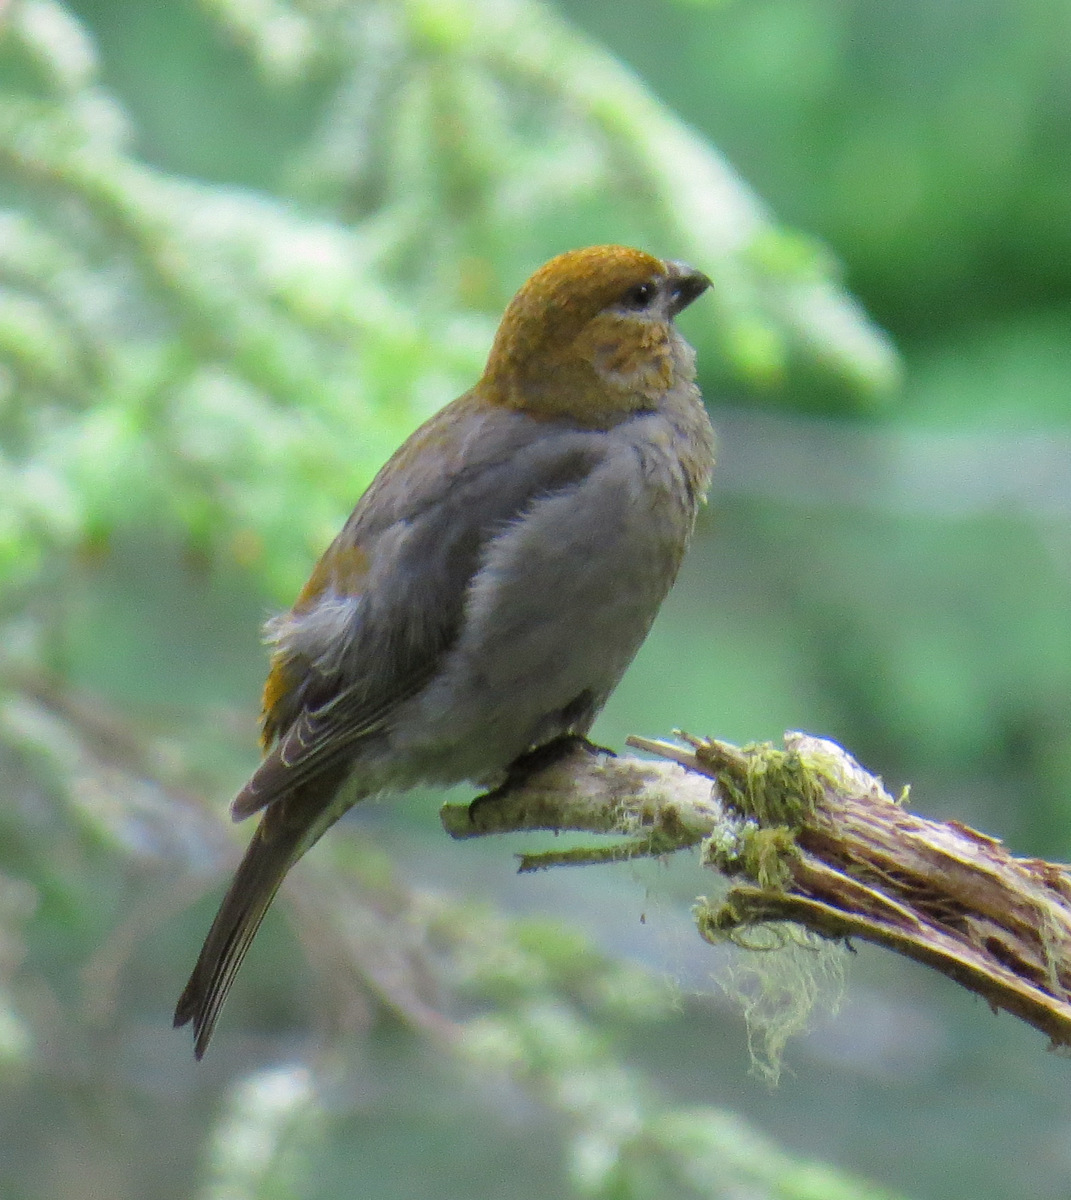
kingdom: Animalia
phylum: Chordata
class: Aves
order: Passeriformes
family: Fringillidae
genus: Pinicola
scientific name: Pinicola enucleator
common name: Pine grosbeak
